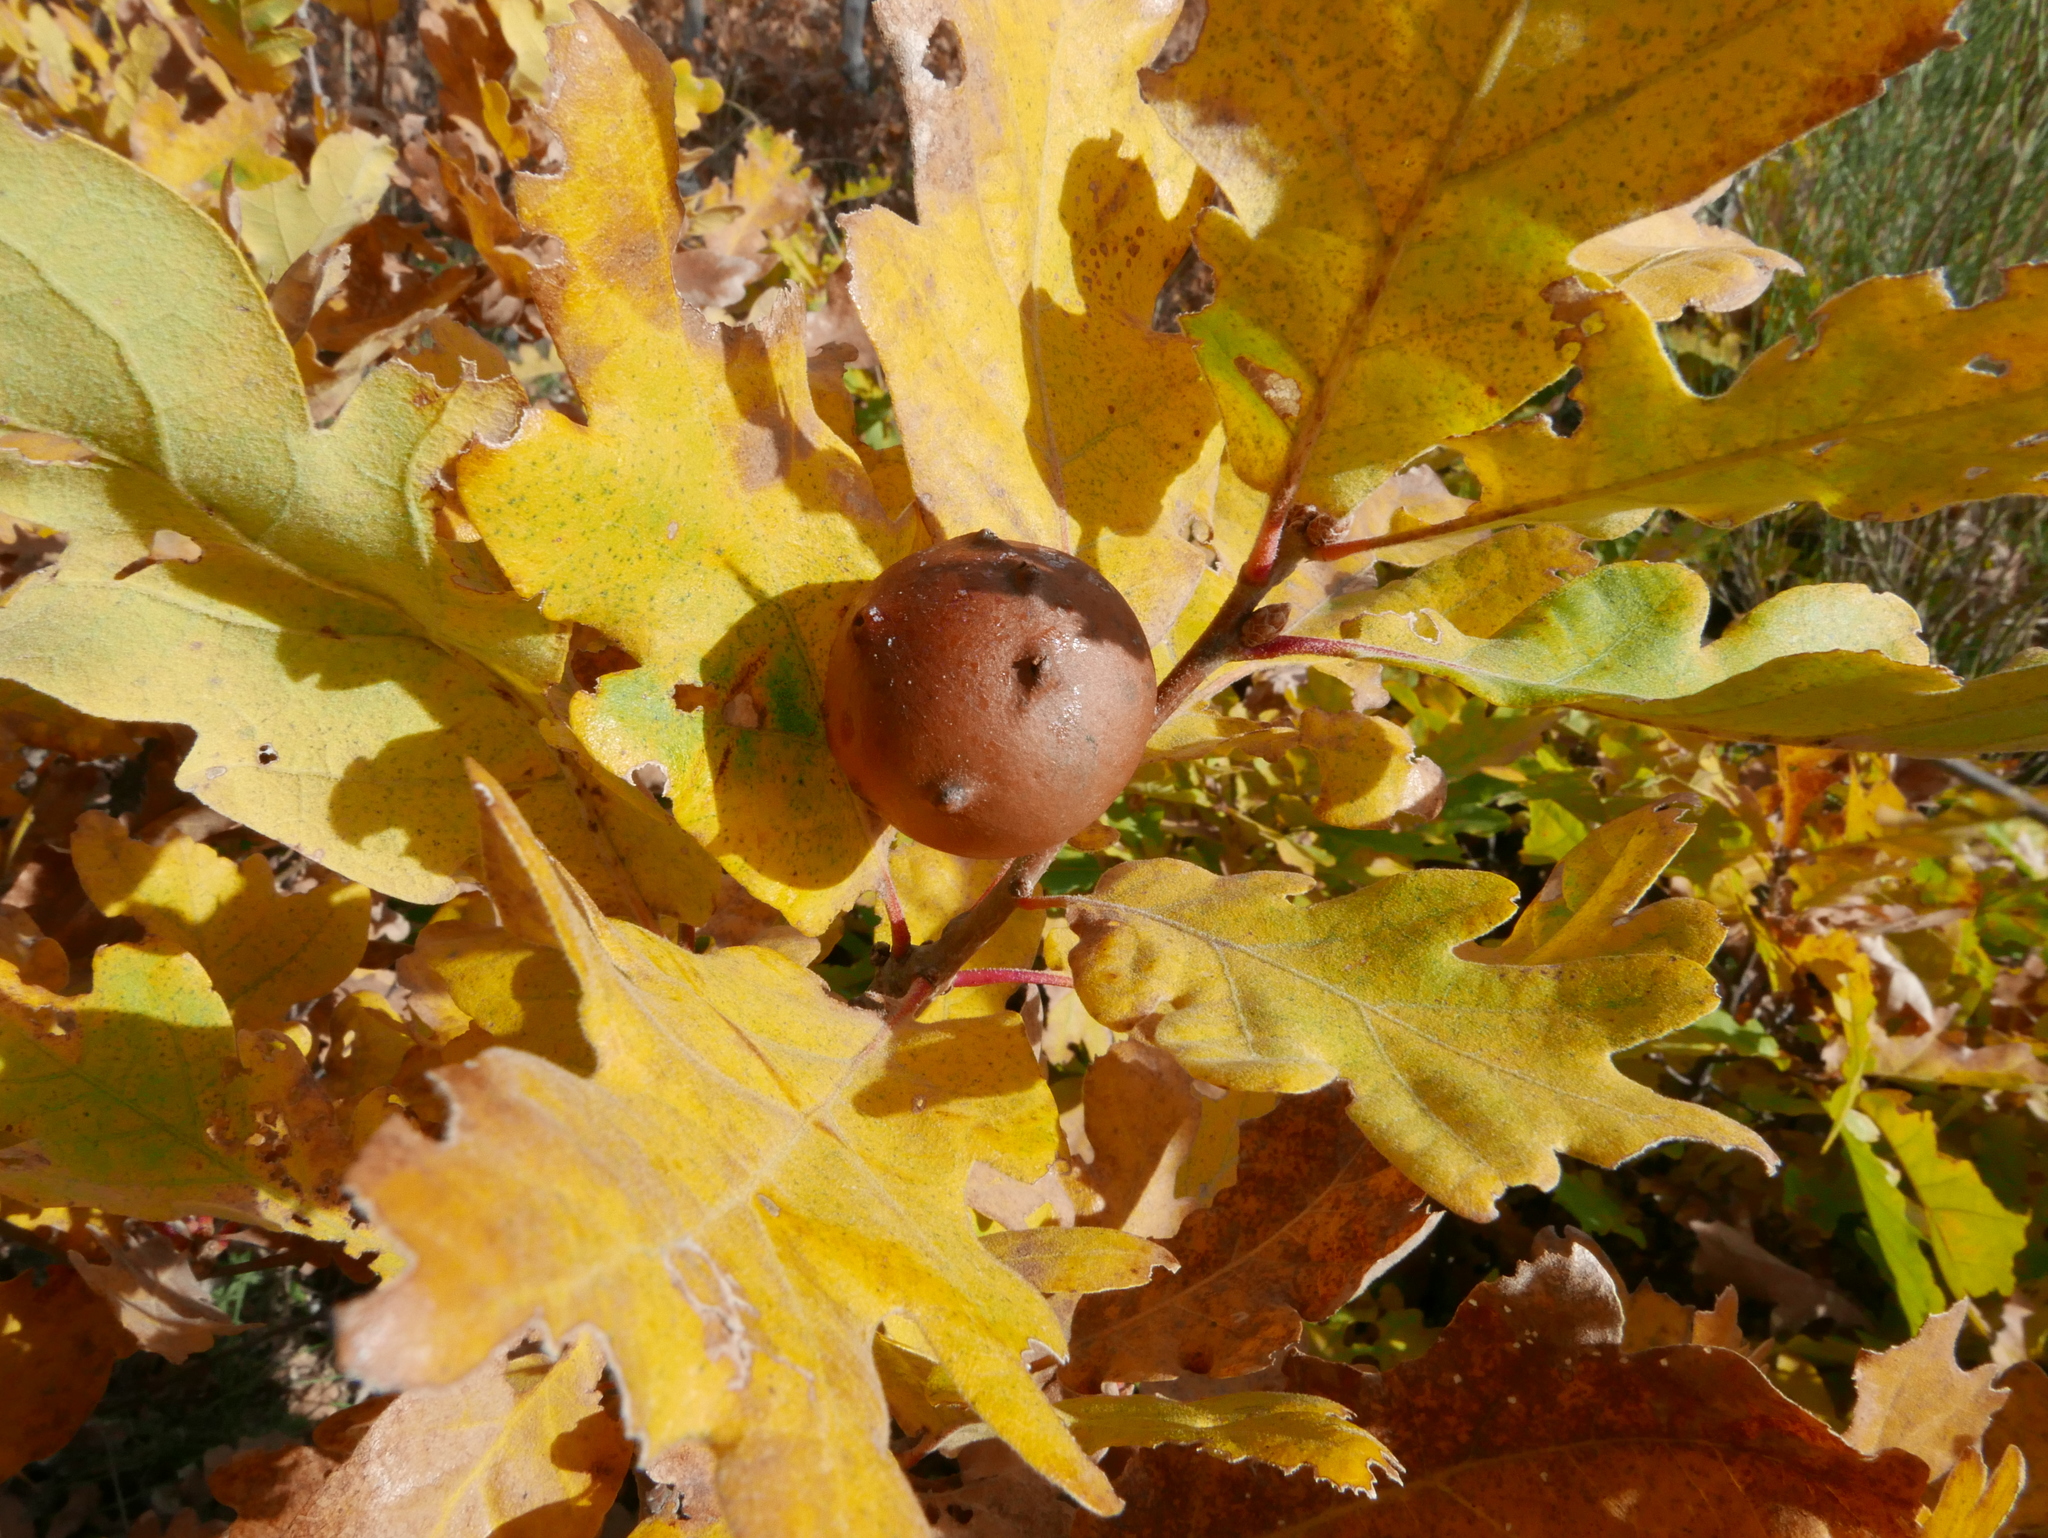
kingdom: Plantae
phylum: Tracheophyta
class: Magnoliopsida
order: Fagales
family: Fagaceae
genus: Quercus
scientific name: Quercus pyrenaica
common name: Pyrenean oak
